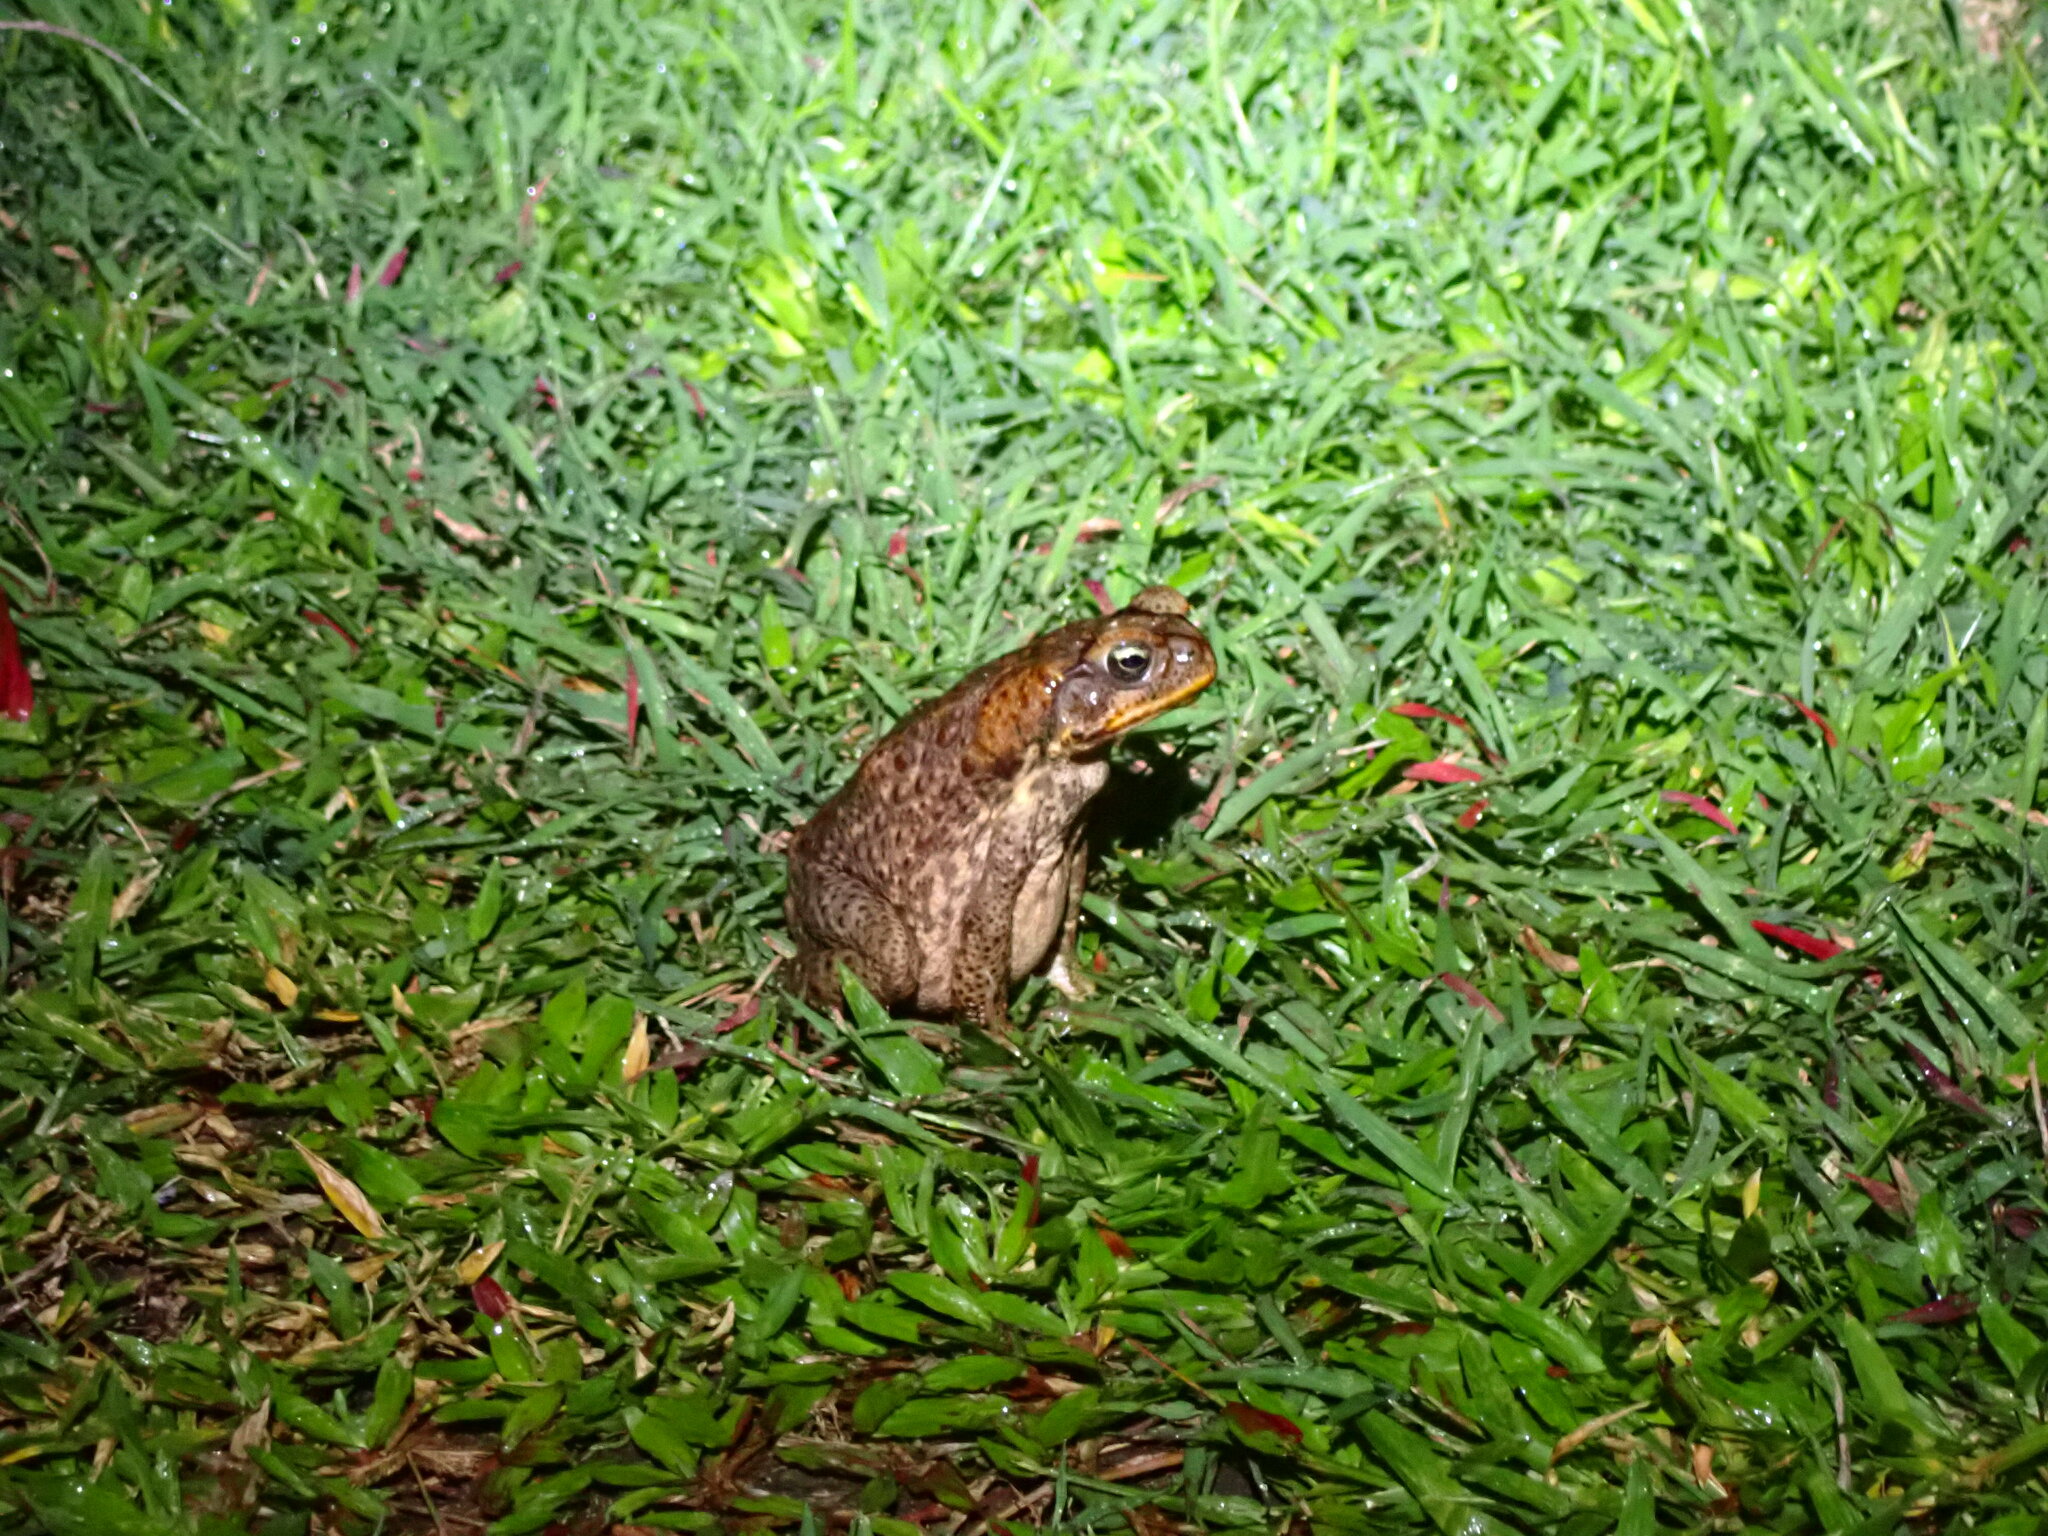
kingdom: Animalia
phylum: Chordata
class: Amphibia
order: Anura
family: Bufonidae
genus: Rhinella
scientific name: Rhinella marina
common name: Cane toad
